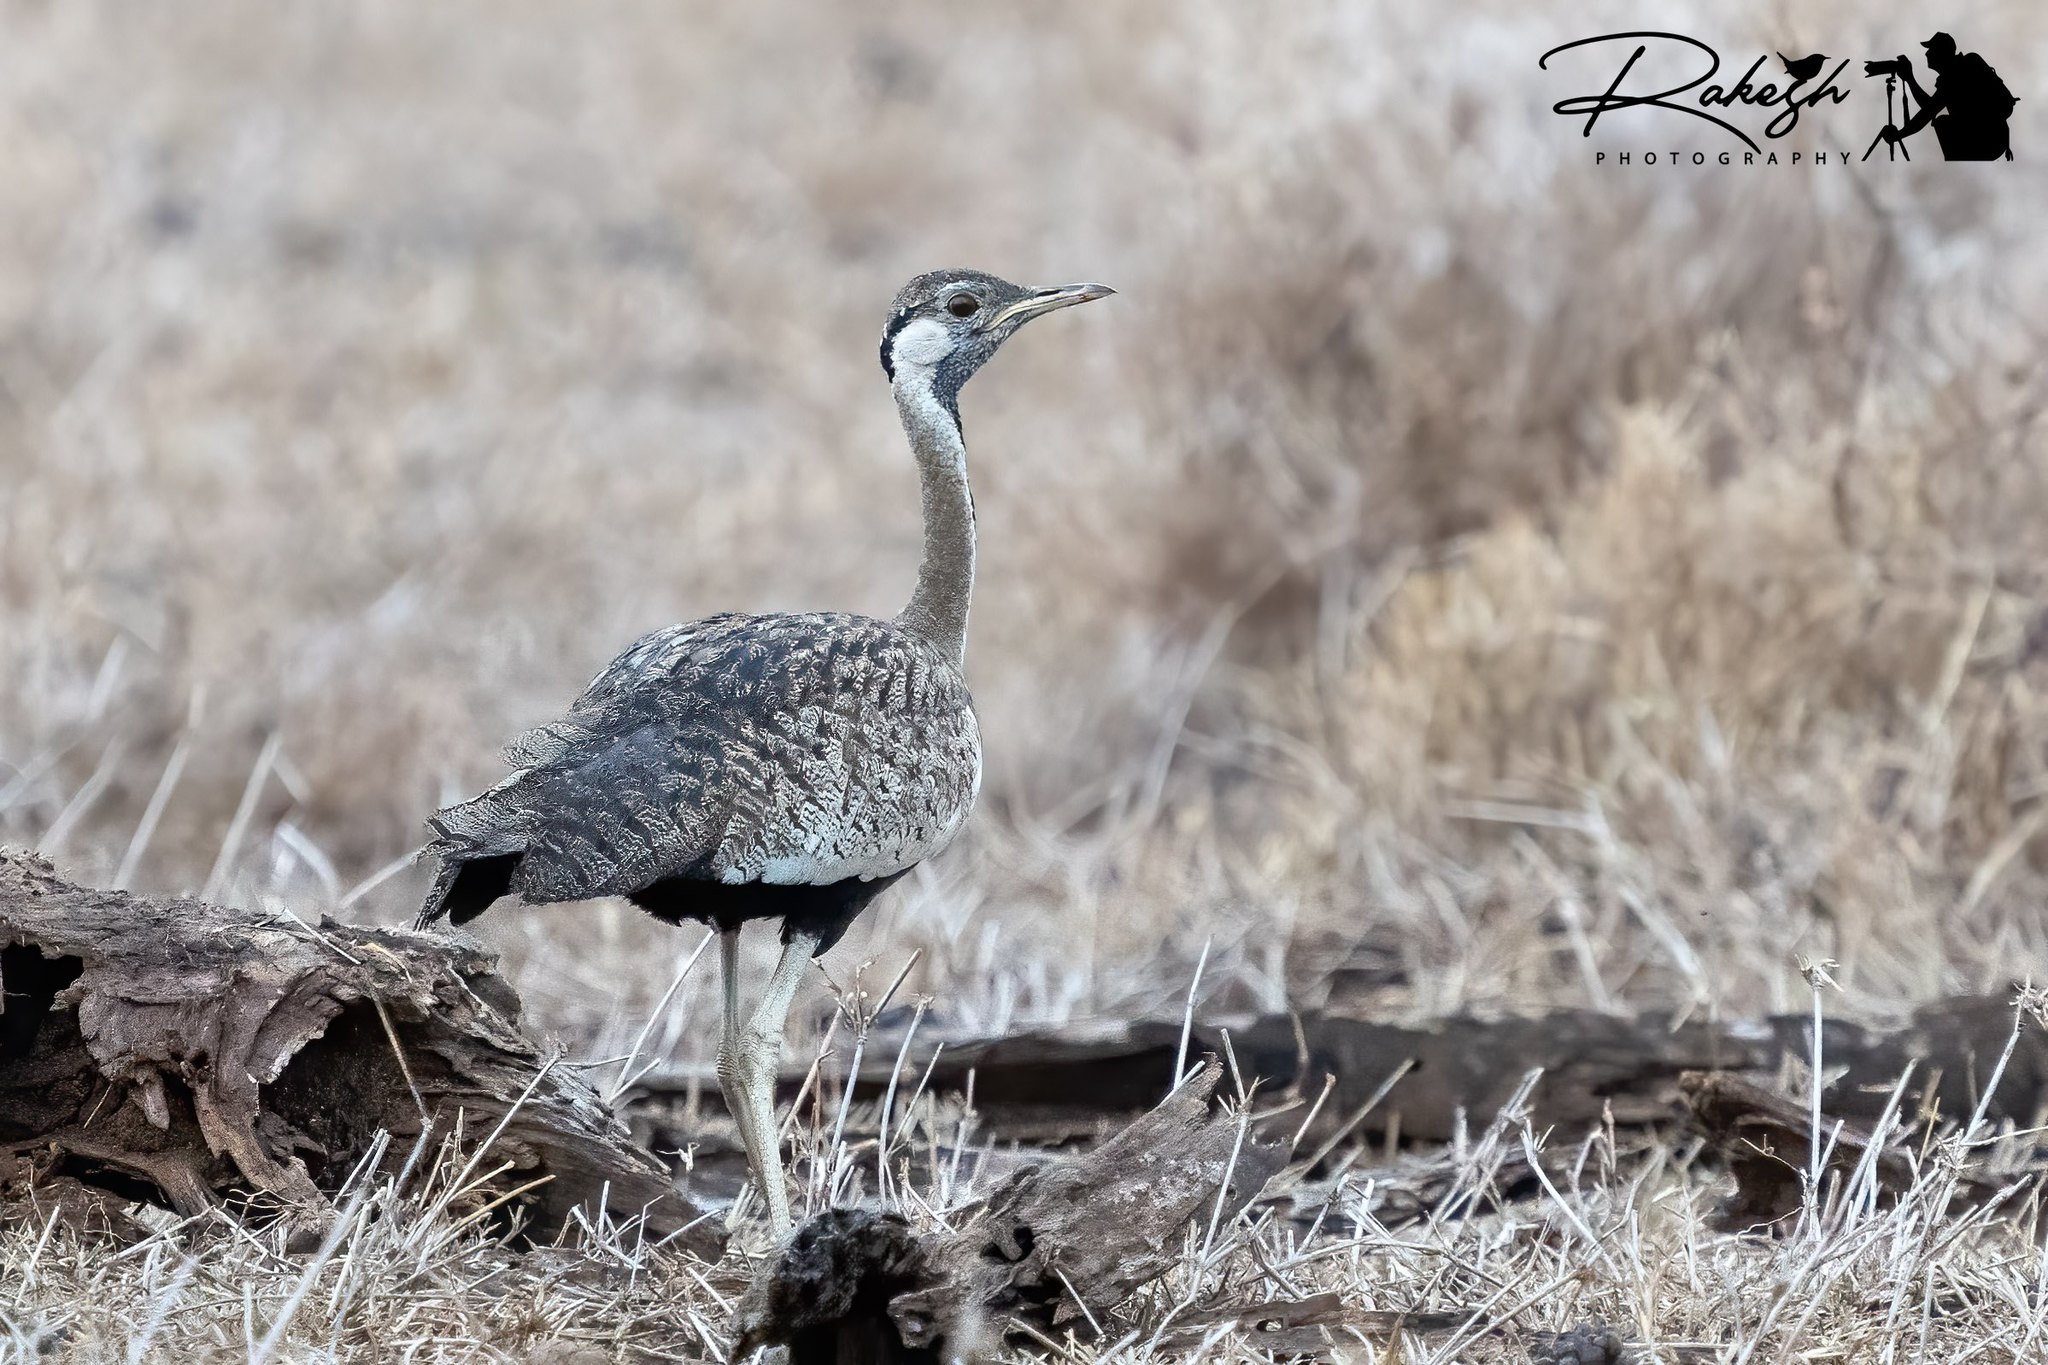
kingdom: Animalia
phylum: Chordata
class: Aves
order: Otidiformes
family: Otididae
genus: Lissotis
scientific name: Lissotis melanogaster
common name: Black-bellied bustard
